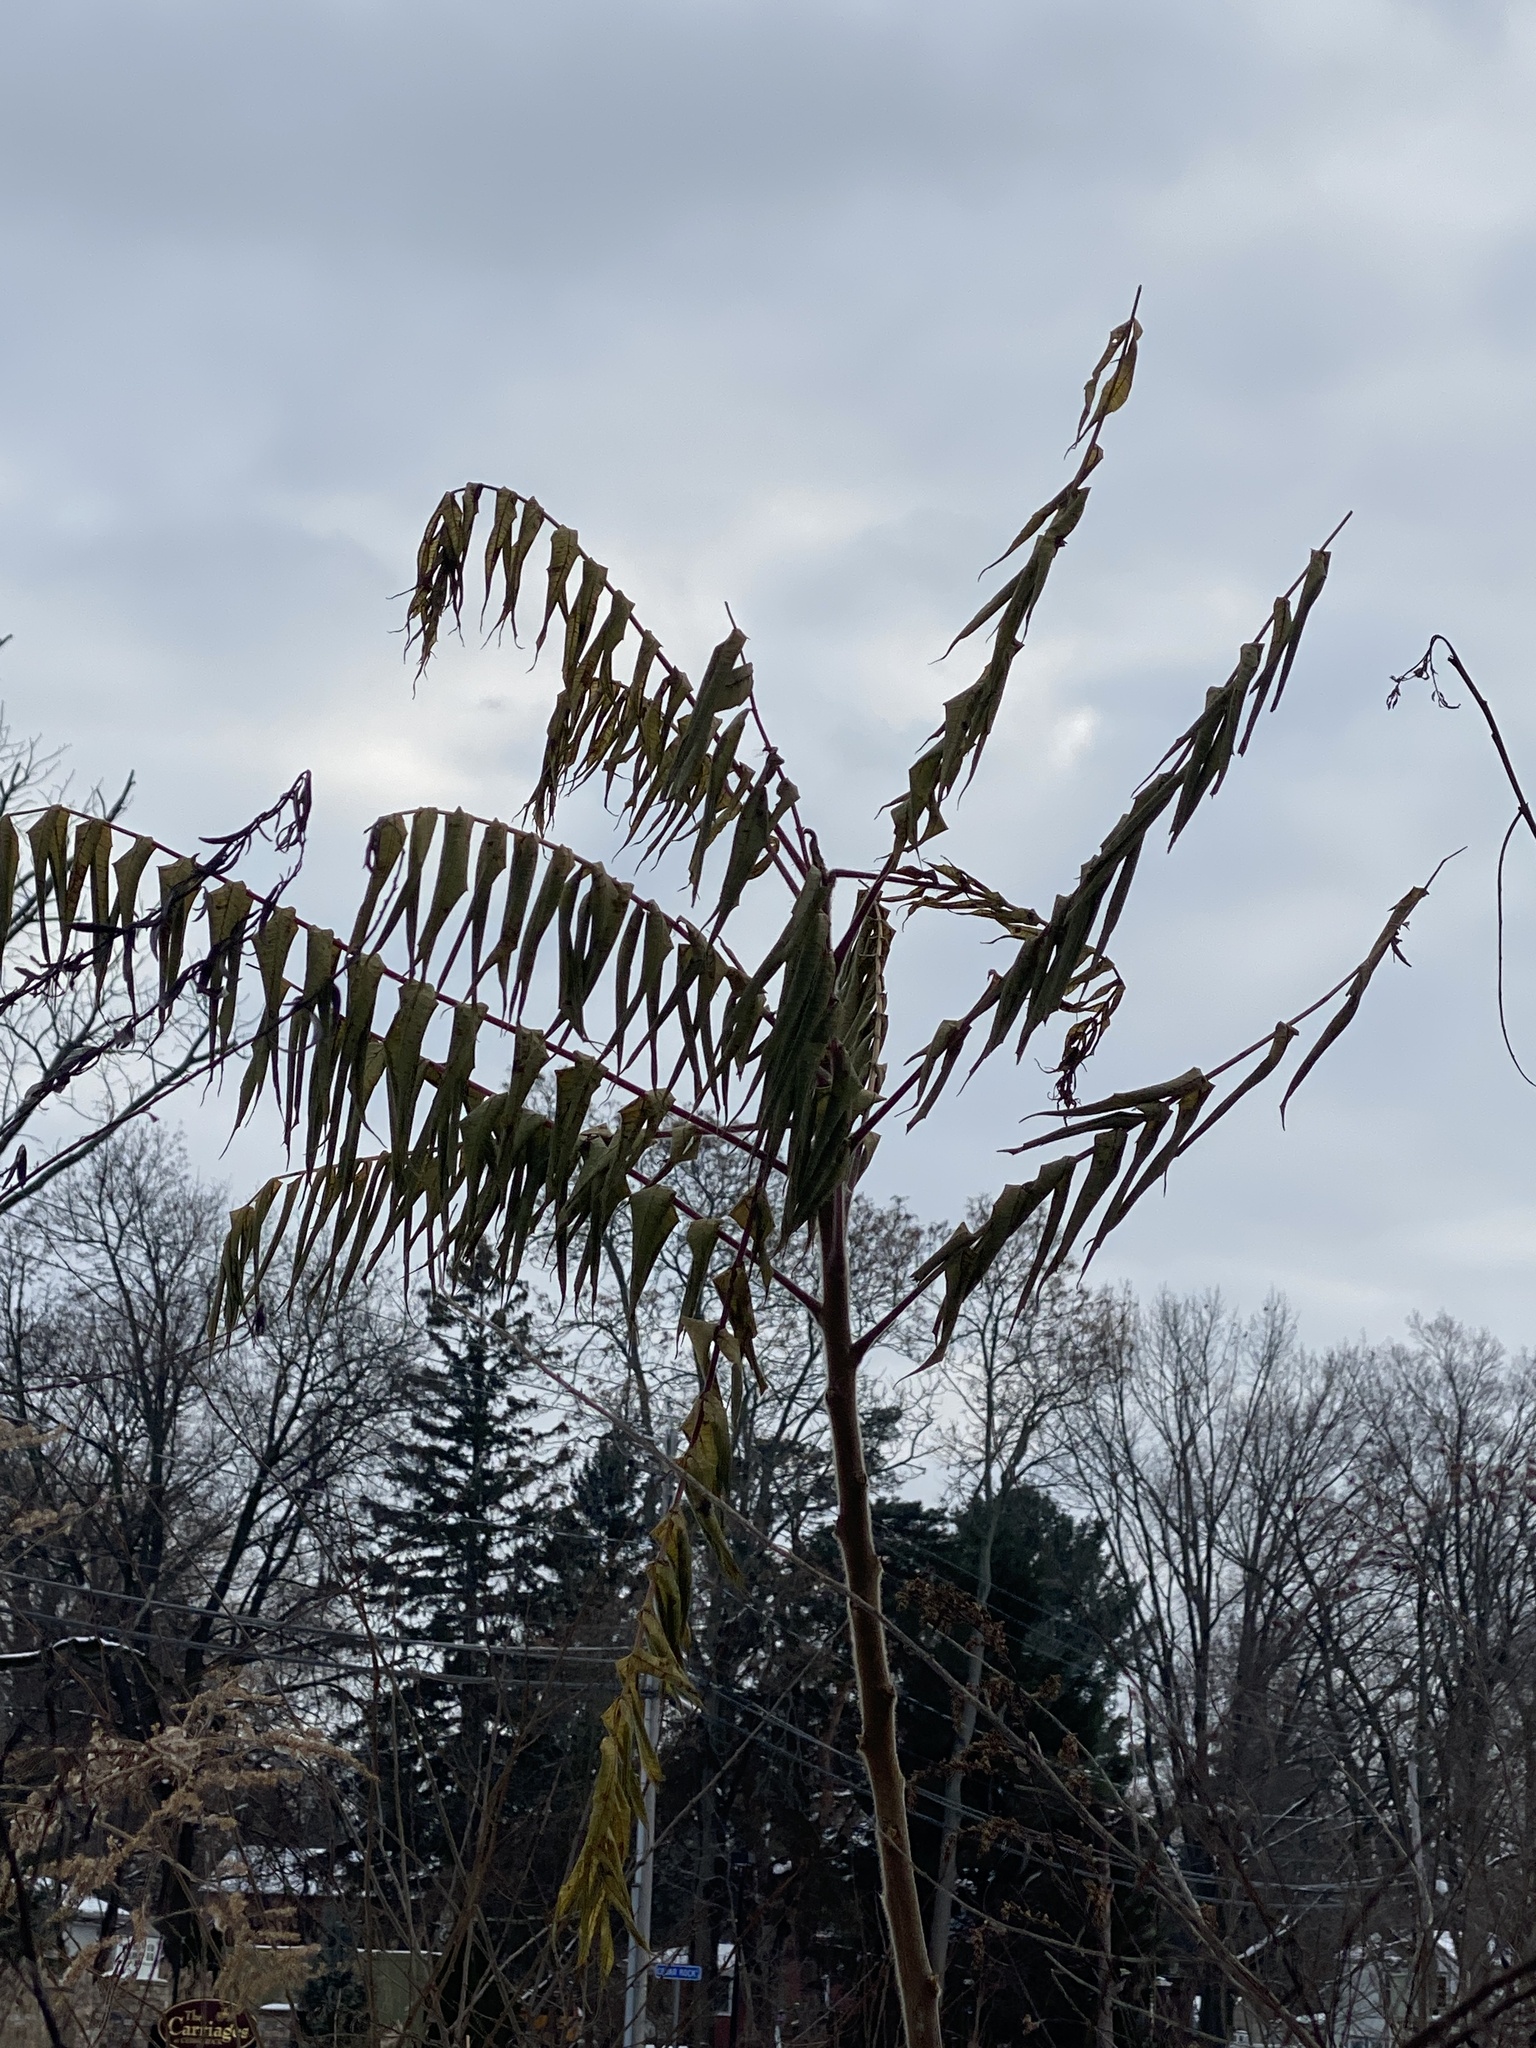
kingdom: Plantae
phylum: Tracheophyta
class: Magnoliopsida
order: Sapindales
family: Anacardiaceae
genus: Rhus
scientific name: Rhus typhina
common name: Staghorn sumac
